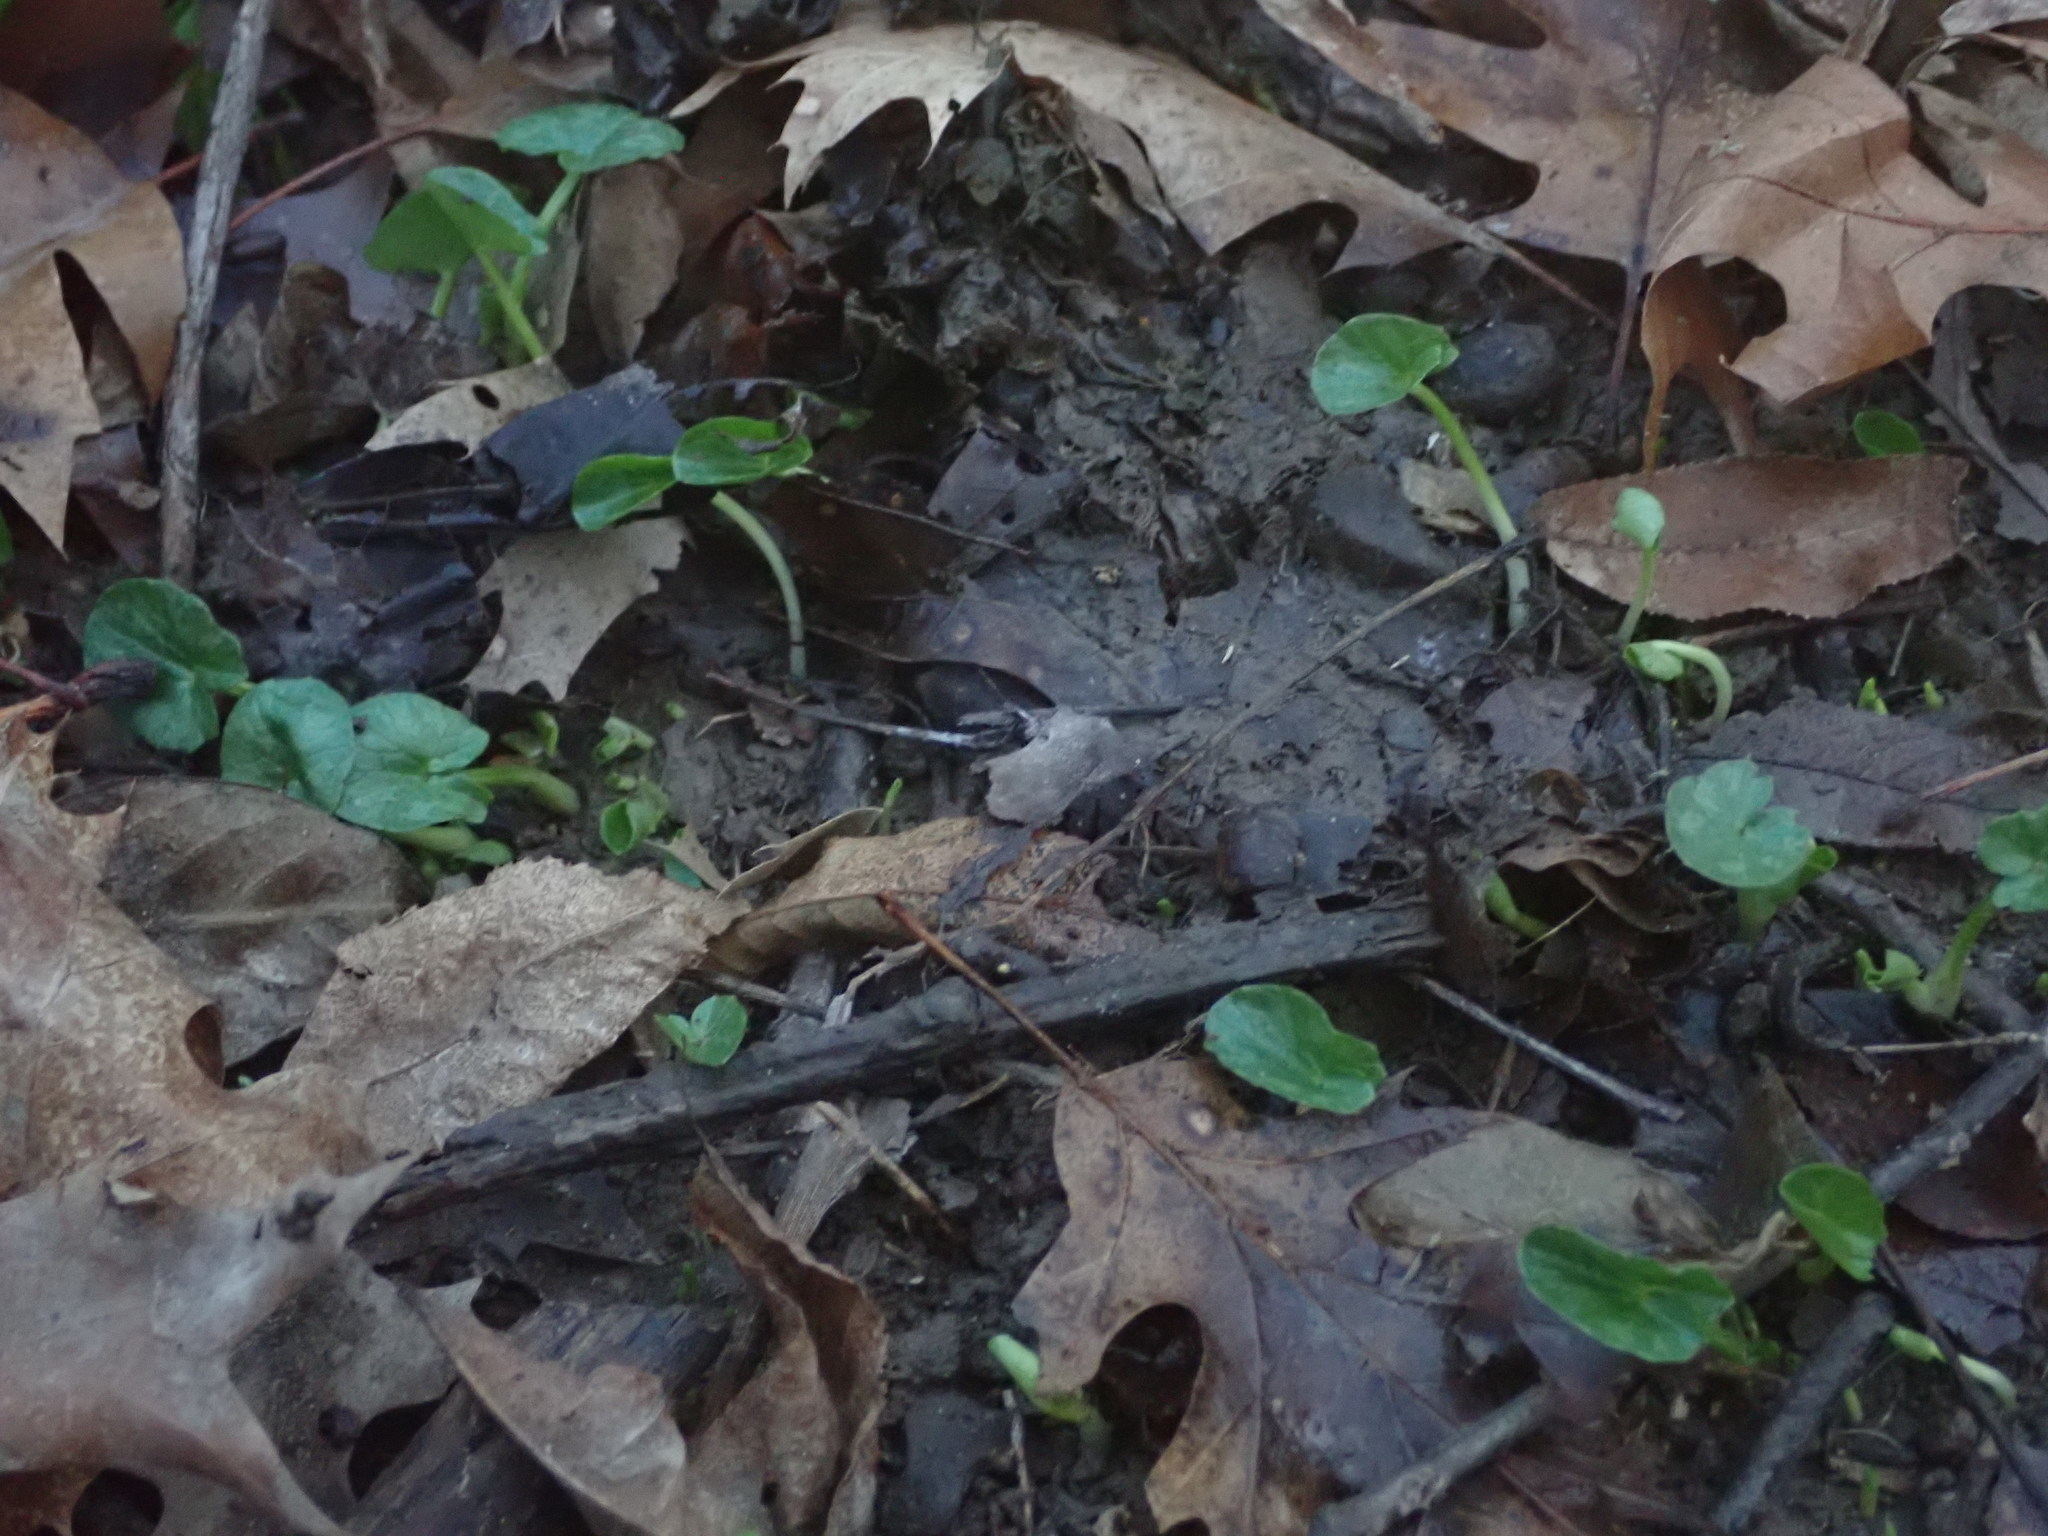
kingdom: Plantae
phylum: Tracheophyta
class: Magnoliopsida
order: Ranunculales
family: Ranunculaceae
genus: Ficaria
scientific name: Ficaria verna
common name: Lesser celandine
